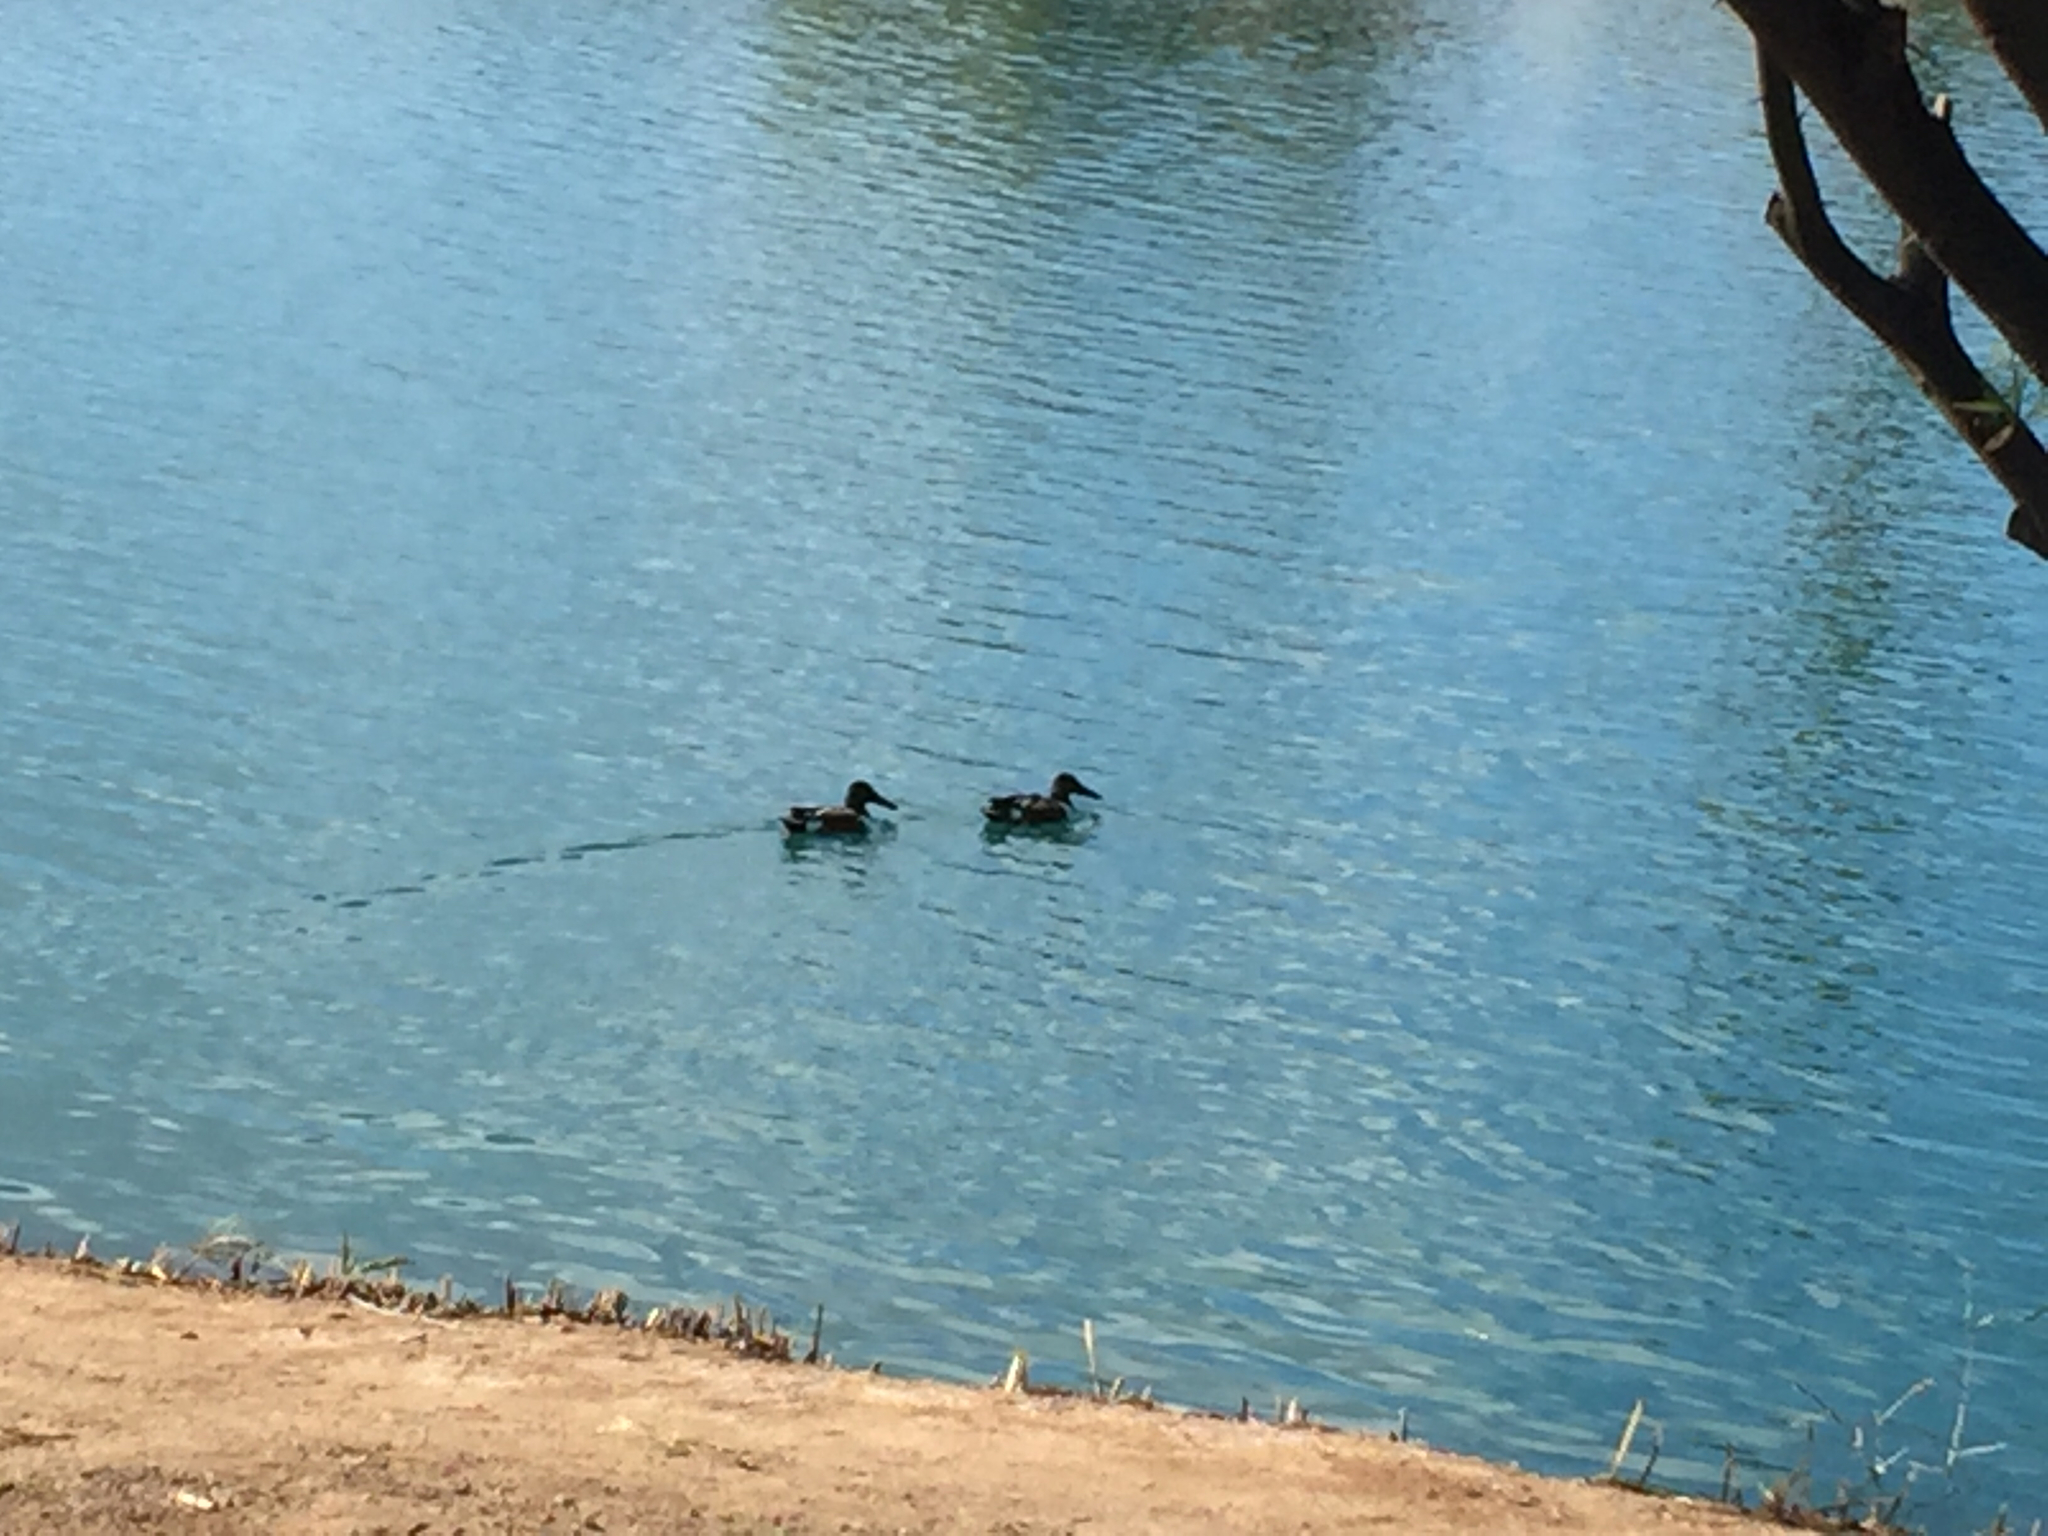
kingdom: Animalia
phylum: Chordata
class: Aves
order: Anseriformes
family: Anatidae
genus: Spatula
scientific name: Spatula clypeata
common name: Northern shoveler
